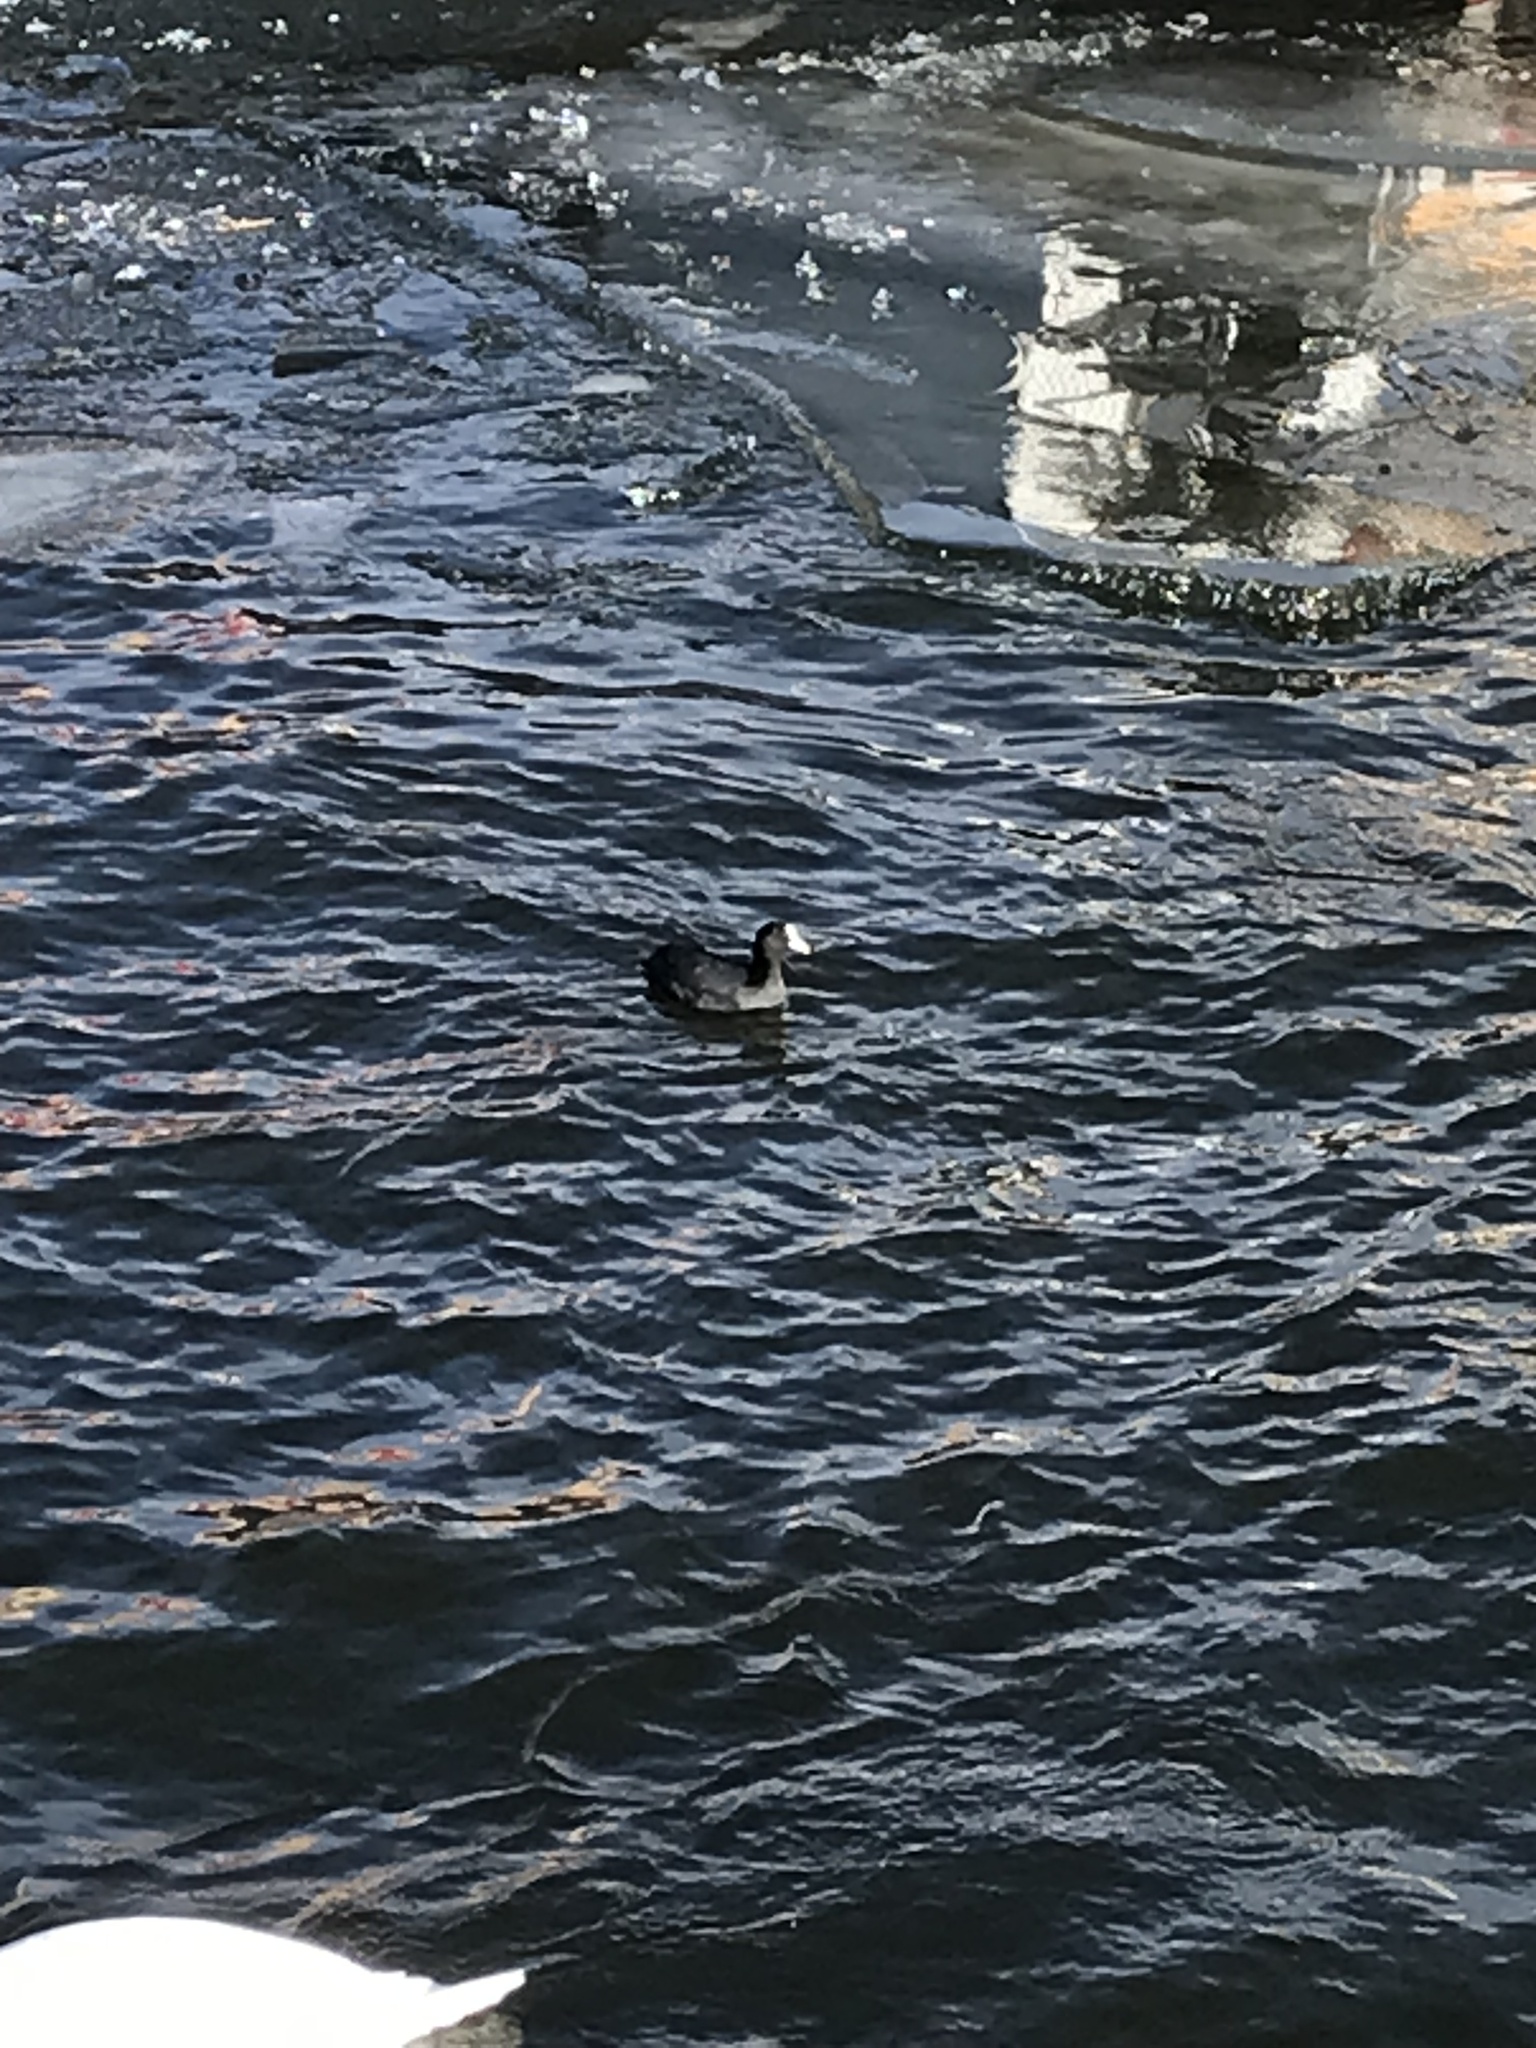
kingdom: Animalia
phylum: Chordata
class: Aves
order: Gruiformes
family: Rallidae
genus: Fulica
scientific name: Fulica atra
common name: Eurasian coot
